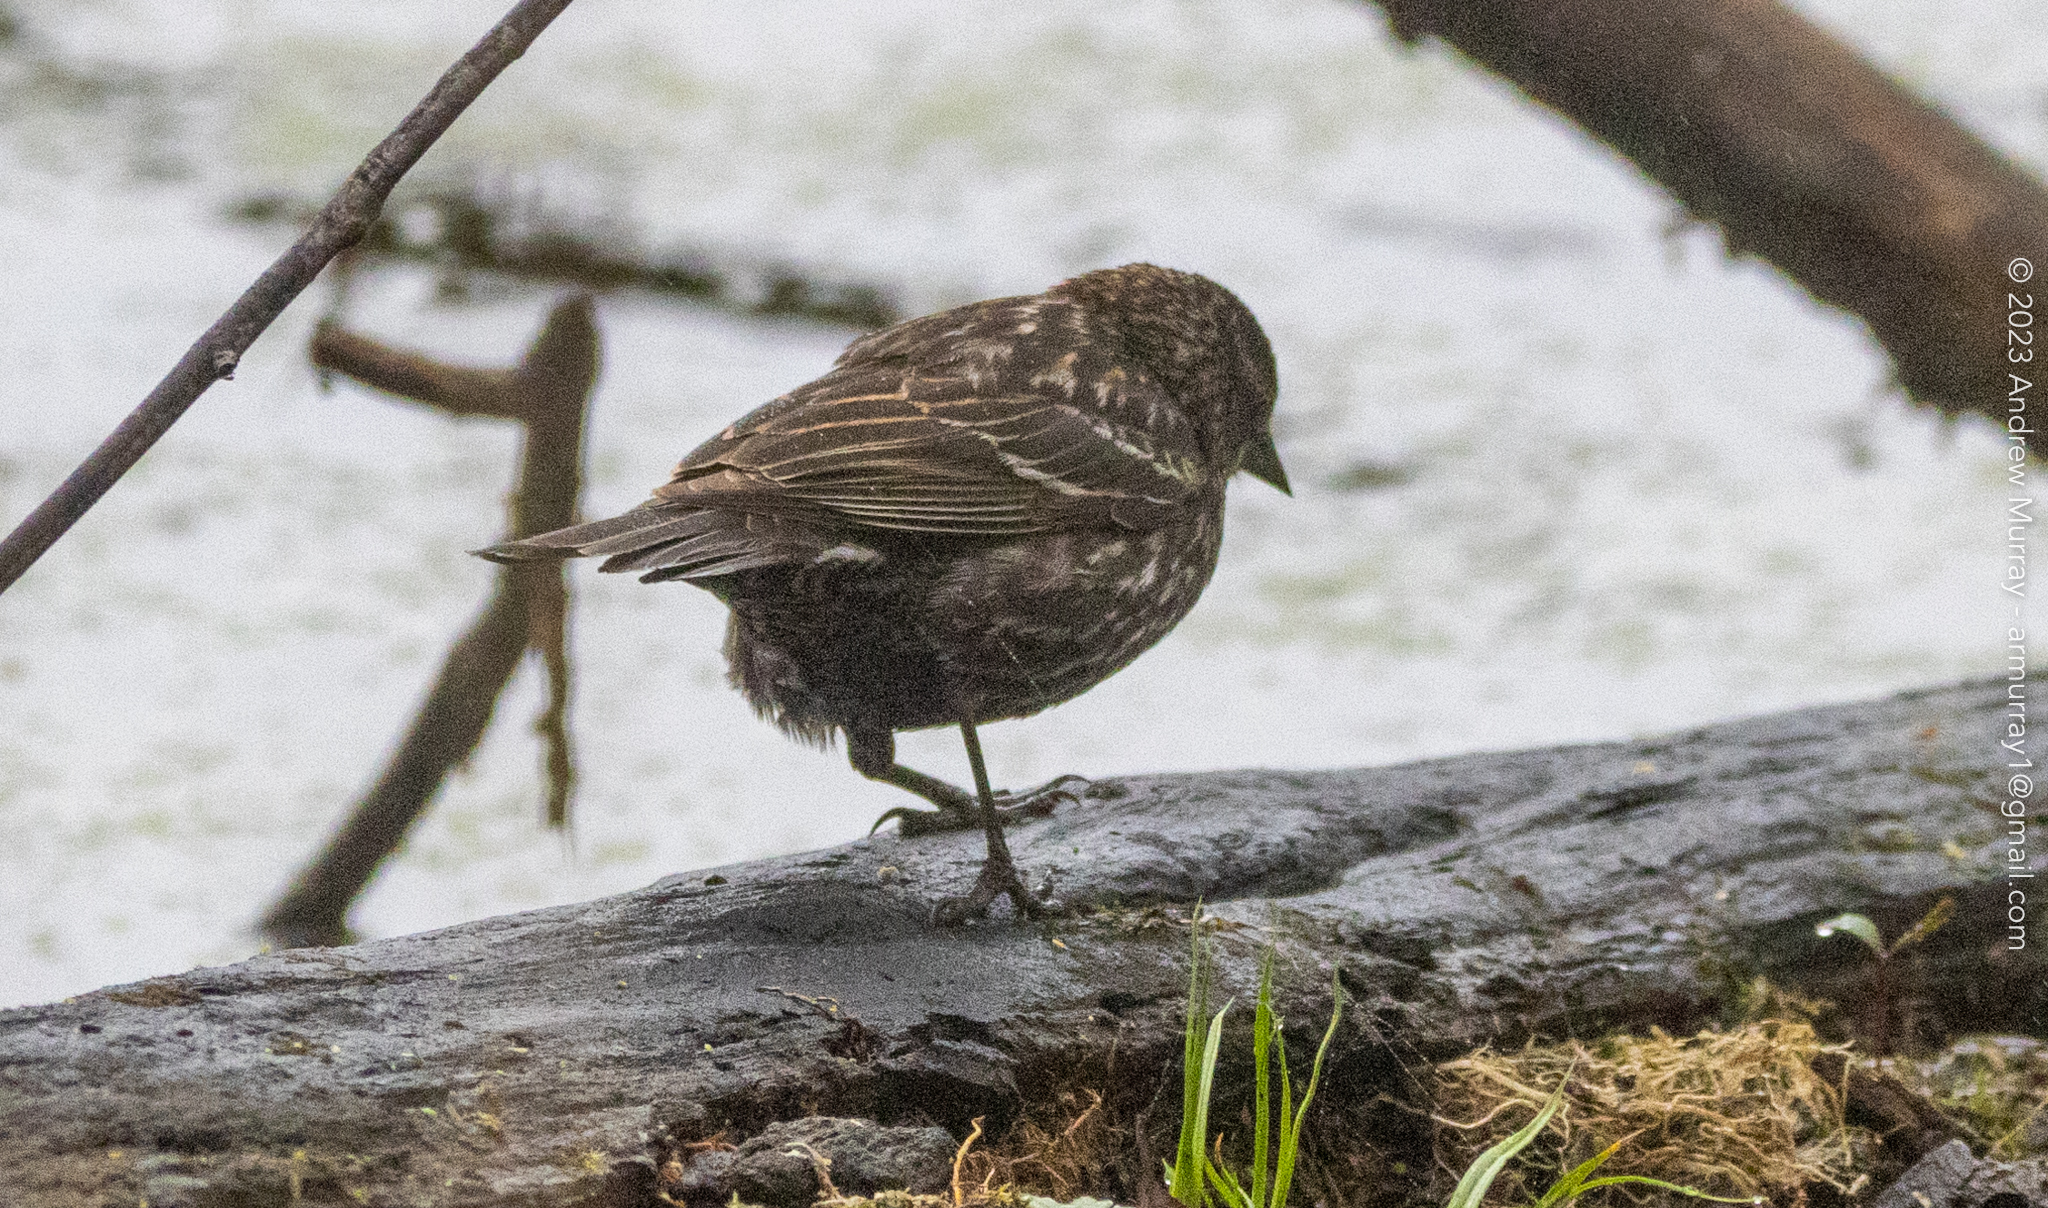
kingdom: Animalia
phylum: Chordata
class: Aves
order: Passeriformes
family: Icteridae
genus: Agelaius
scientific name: Agelaius phoeniceus
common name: Red-winged blackbird
